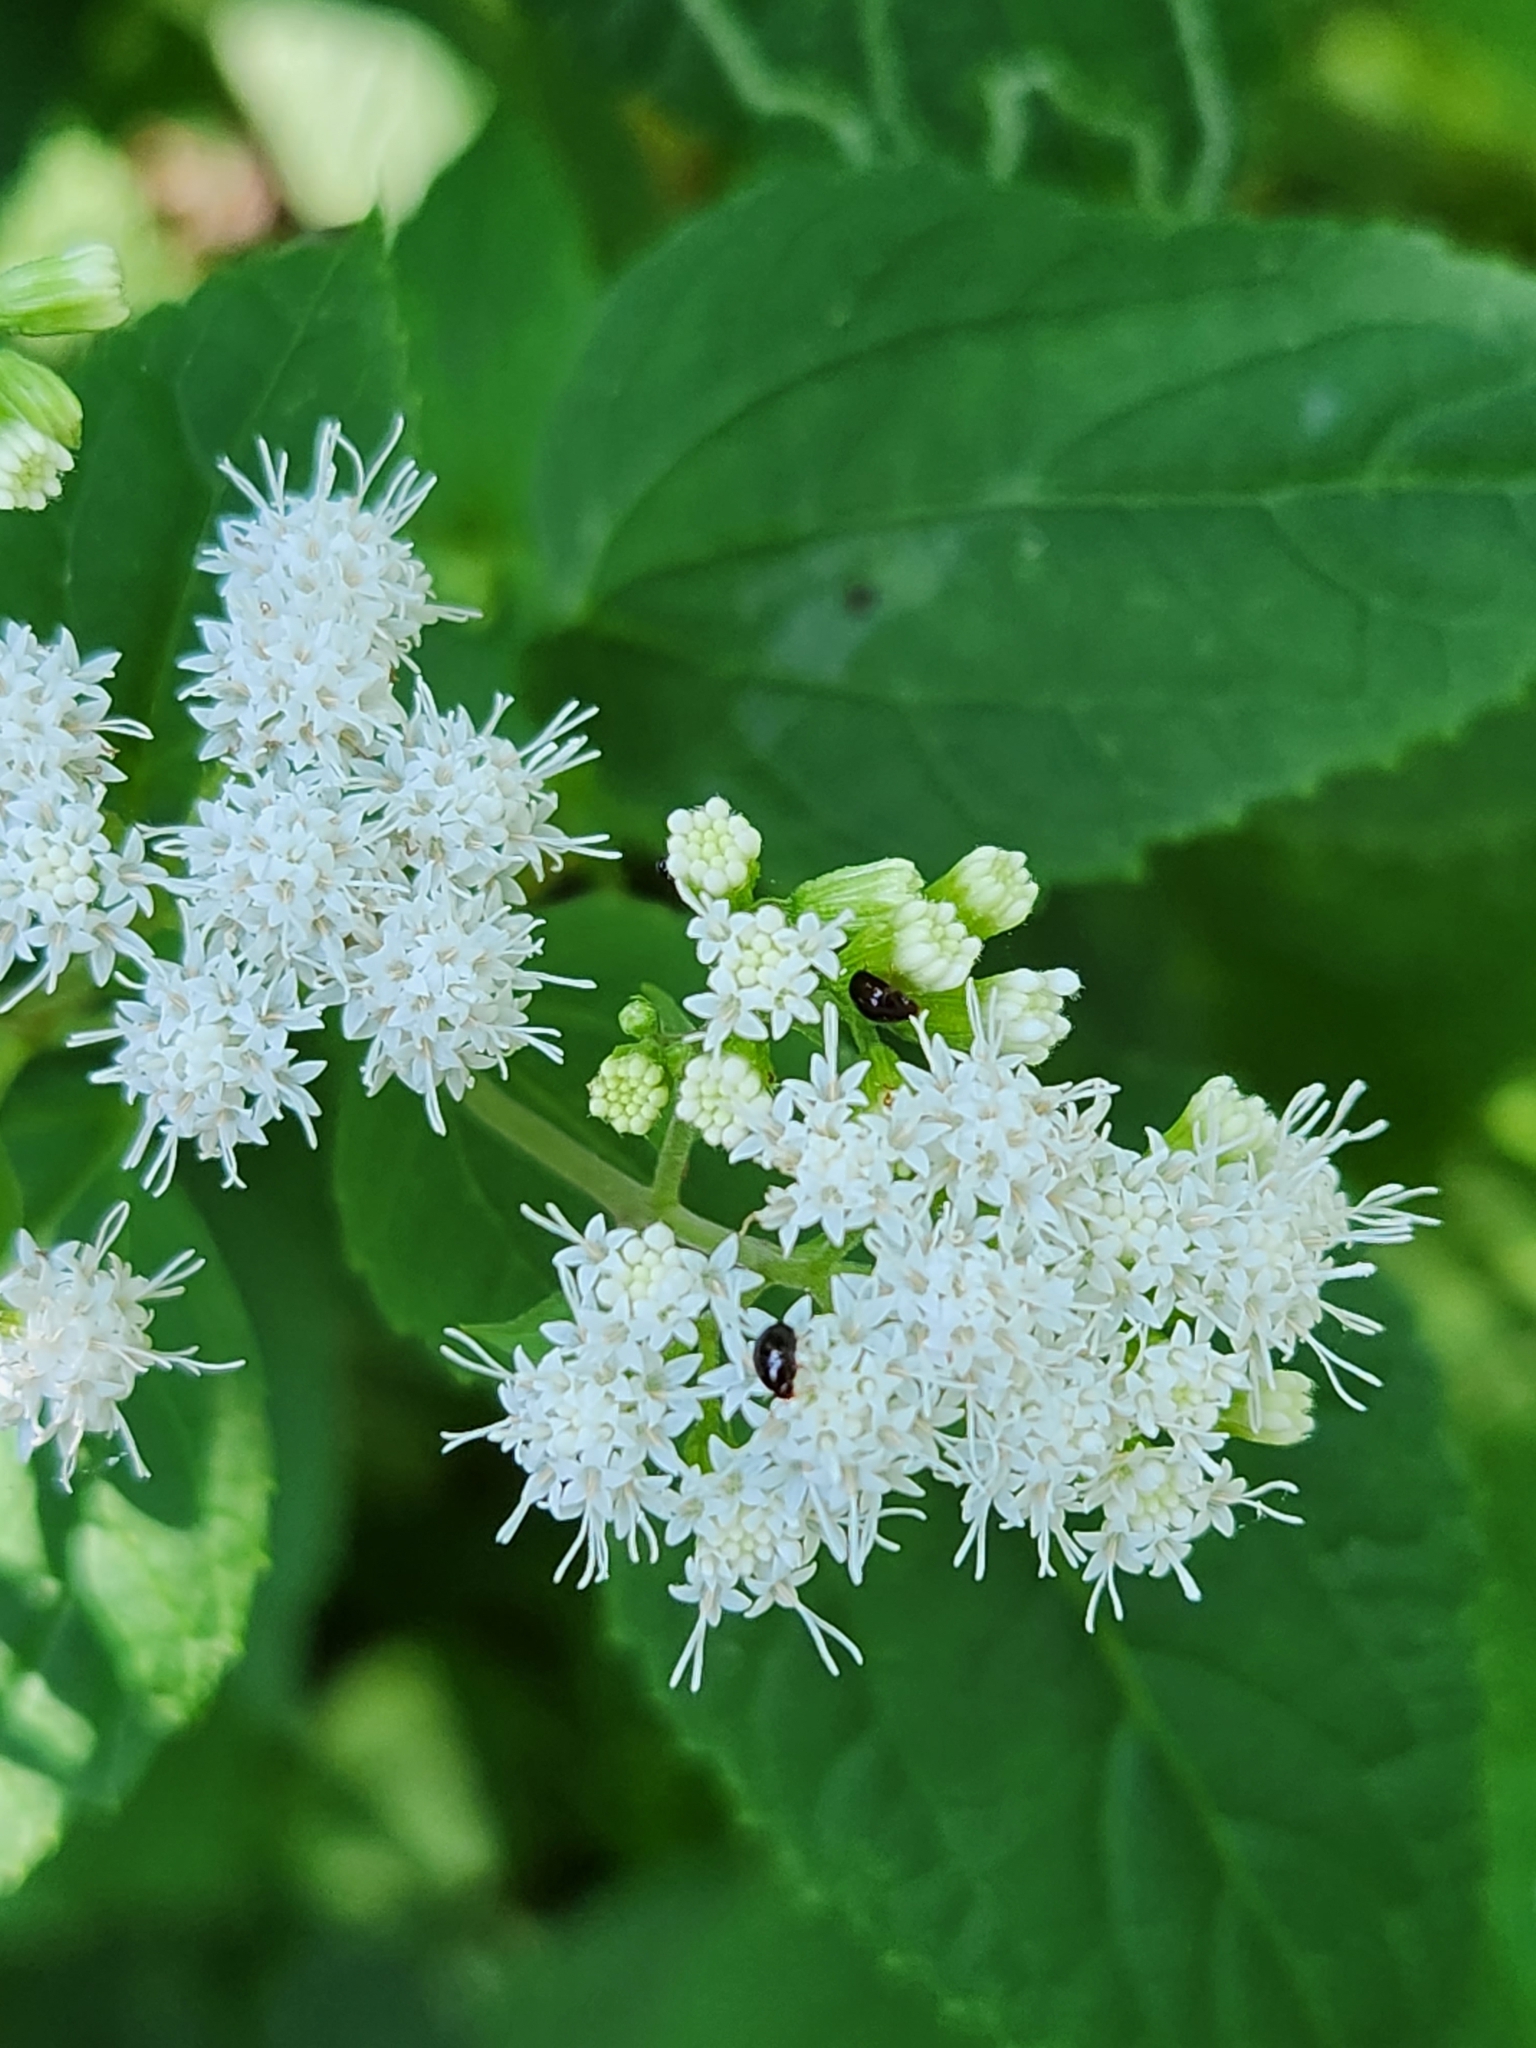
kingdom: Plantae
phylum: Tracheophyta
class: Magnoliopsida
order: Asterales
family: Asteraceae
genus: Ageratina
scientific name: Ageratina altissima
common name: White snakeroot
